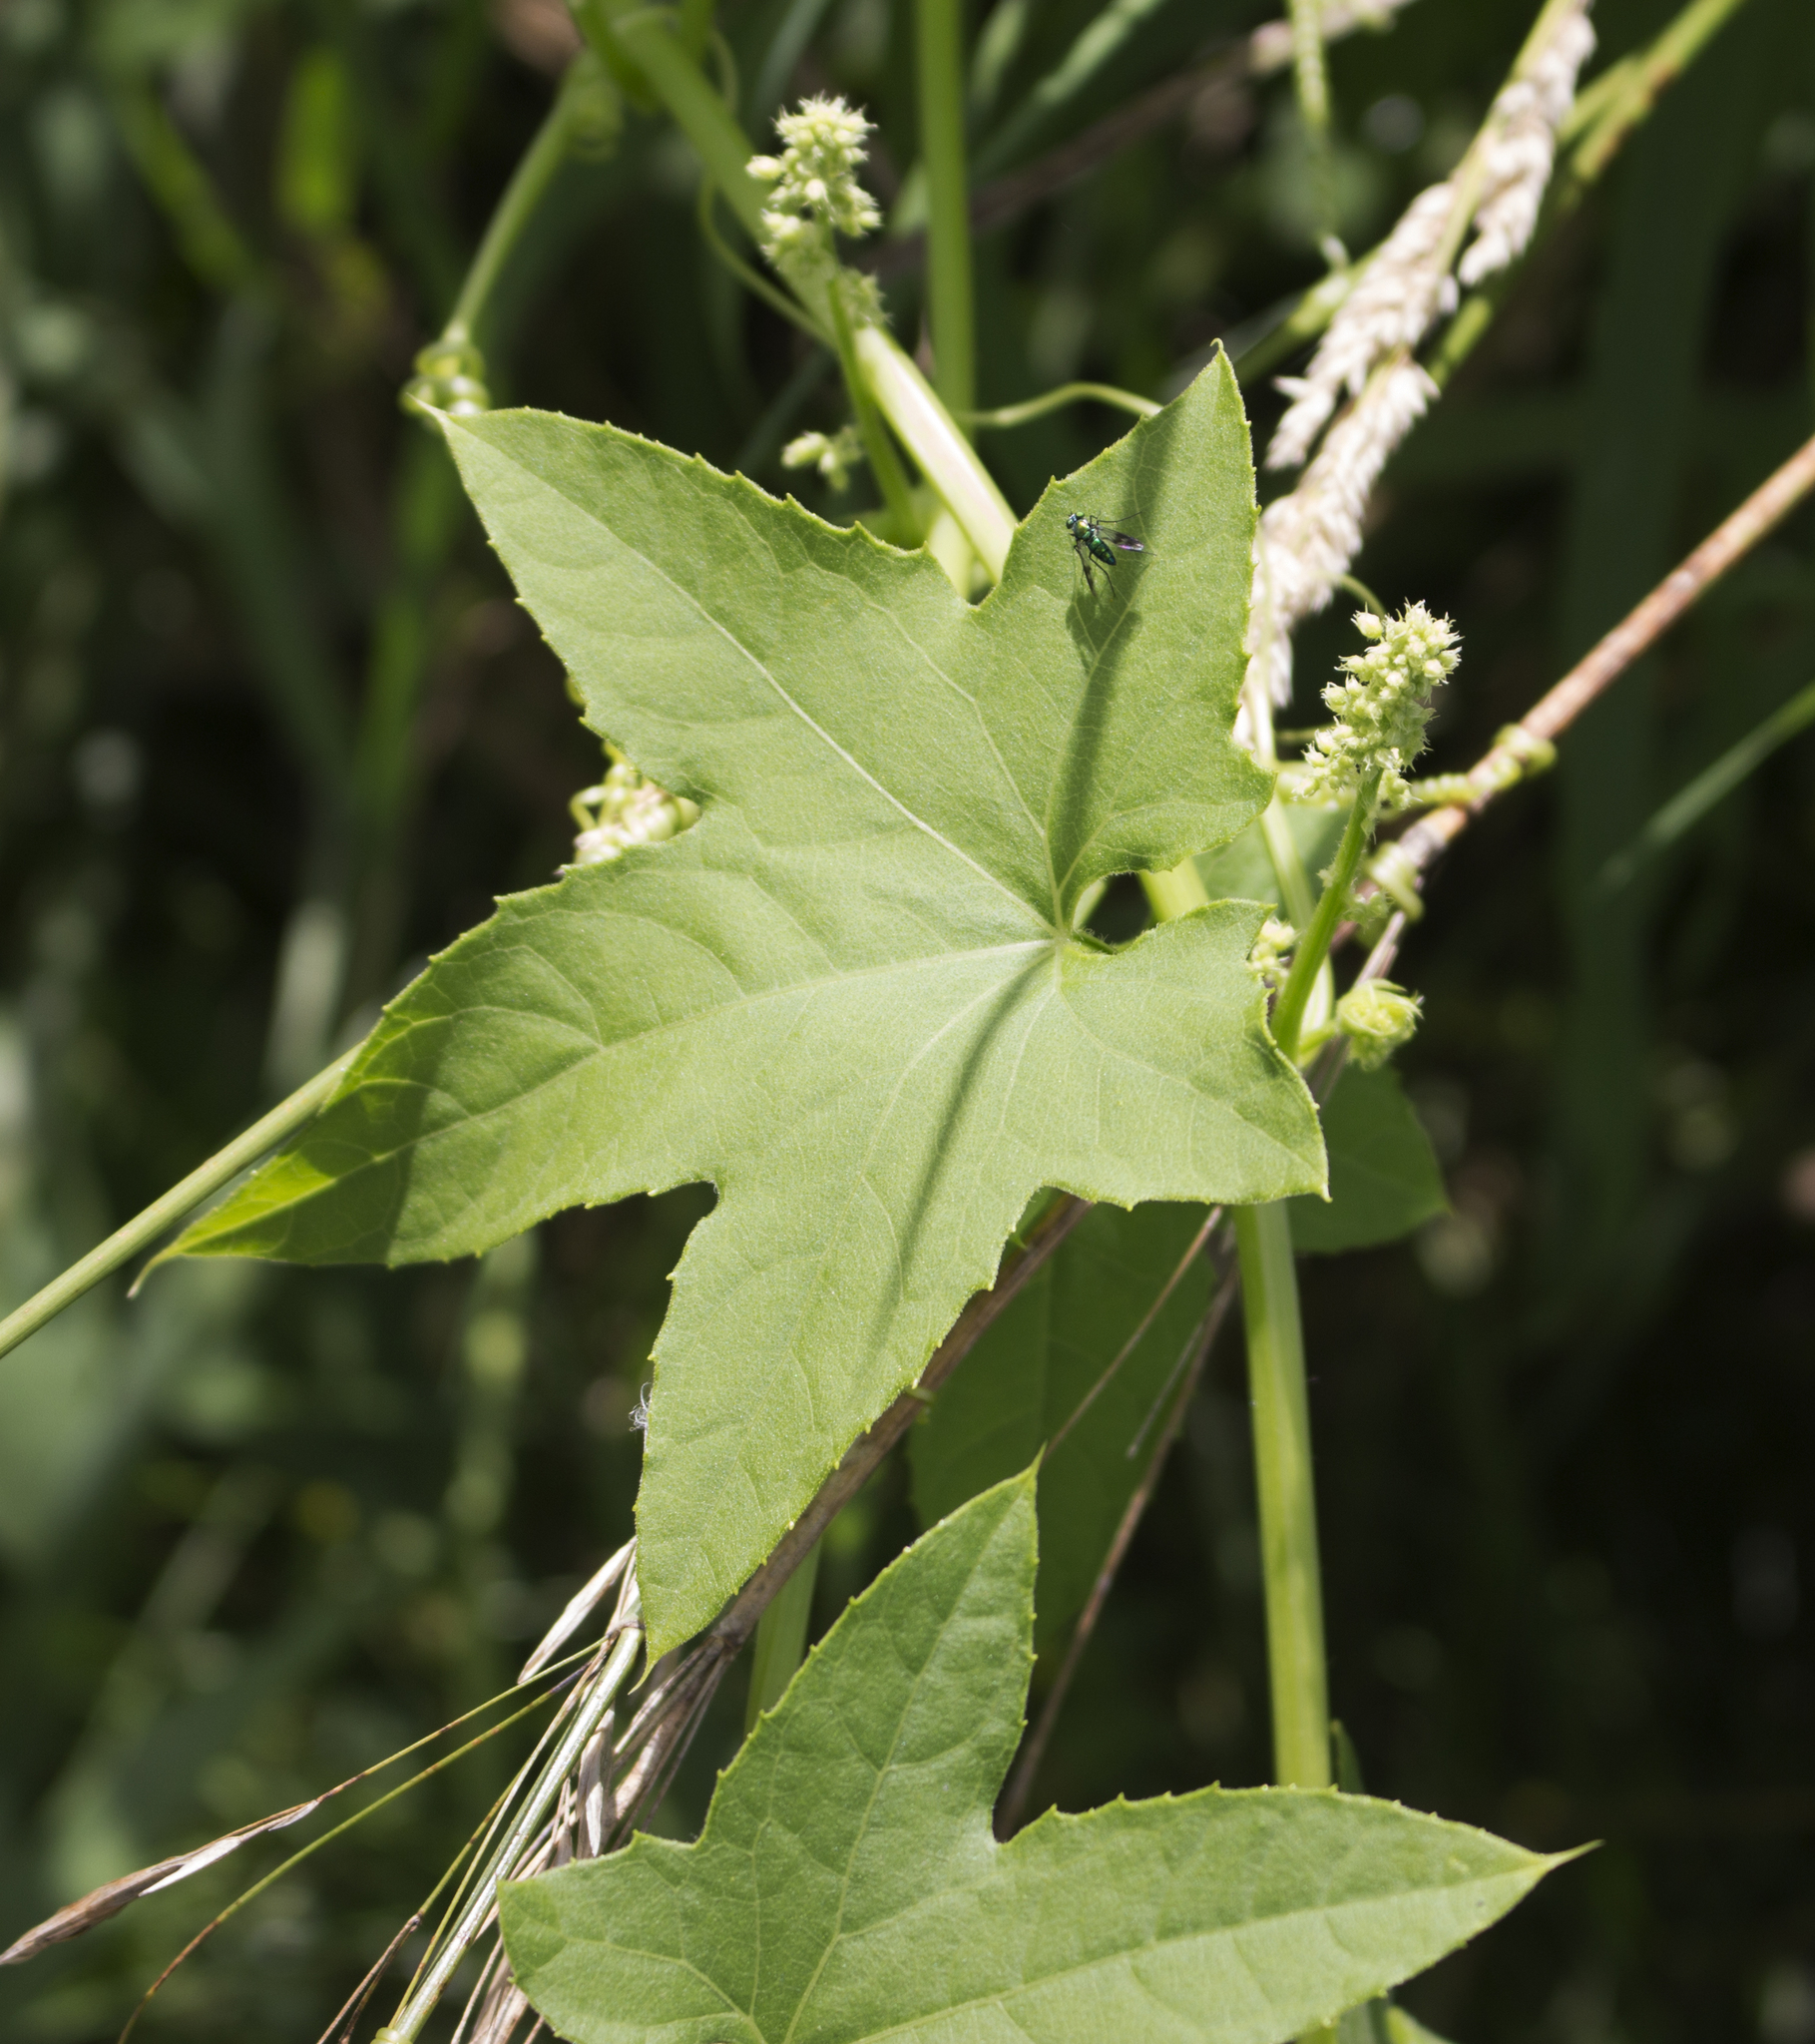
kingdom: Plantae
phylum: Tracheophyta
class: Magnoliopsida
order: Cucurbitales
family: Cucurbitaceae
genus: Echinocystis
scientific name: Echinocystis lobata
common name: Wild cucumber
